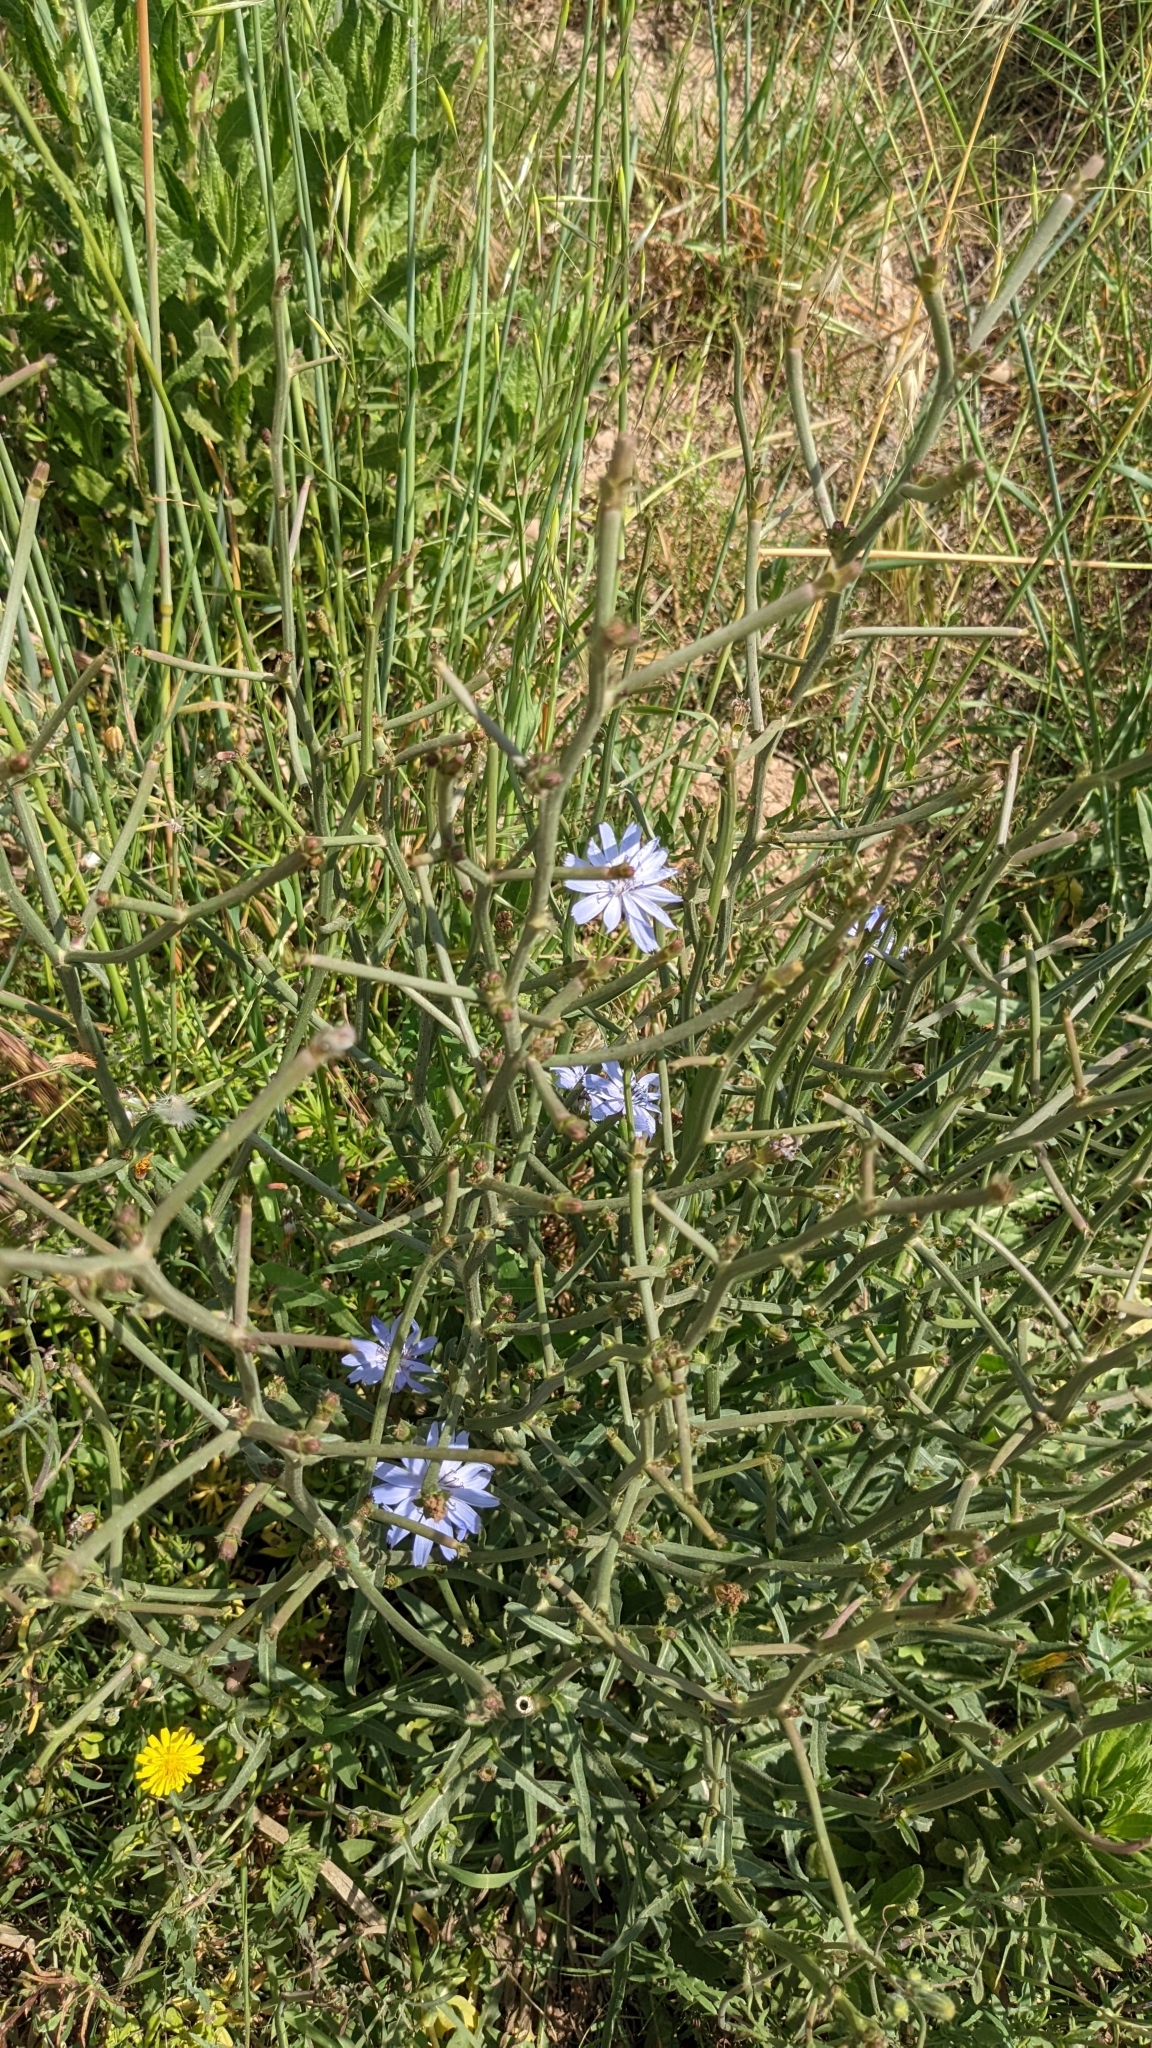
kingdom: Plantae
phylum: Tracheophyta
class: Magnoliopsida
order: Asterales
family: Asteraceae
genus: Cichorium
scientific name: Cichorium intybus
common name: Chicory
